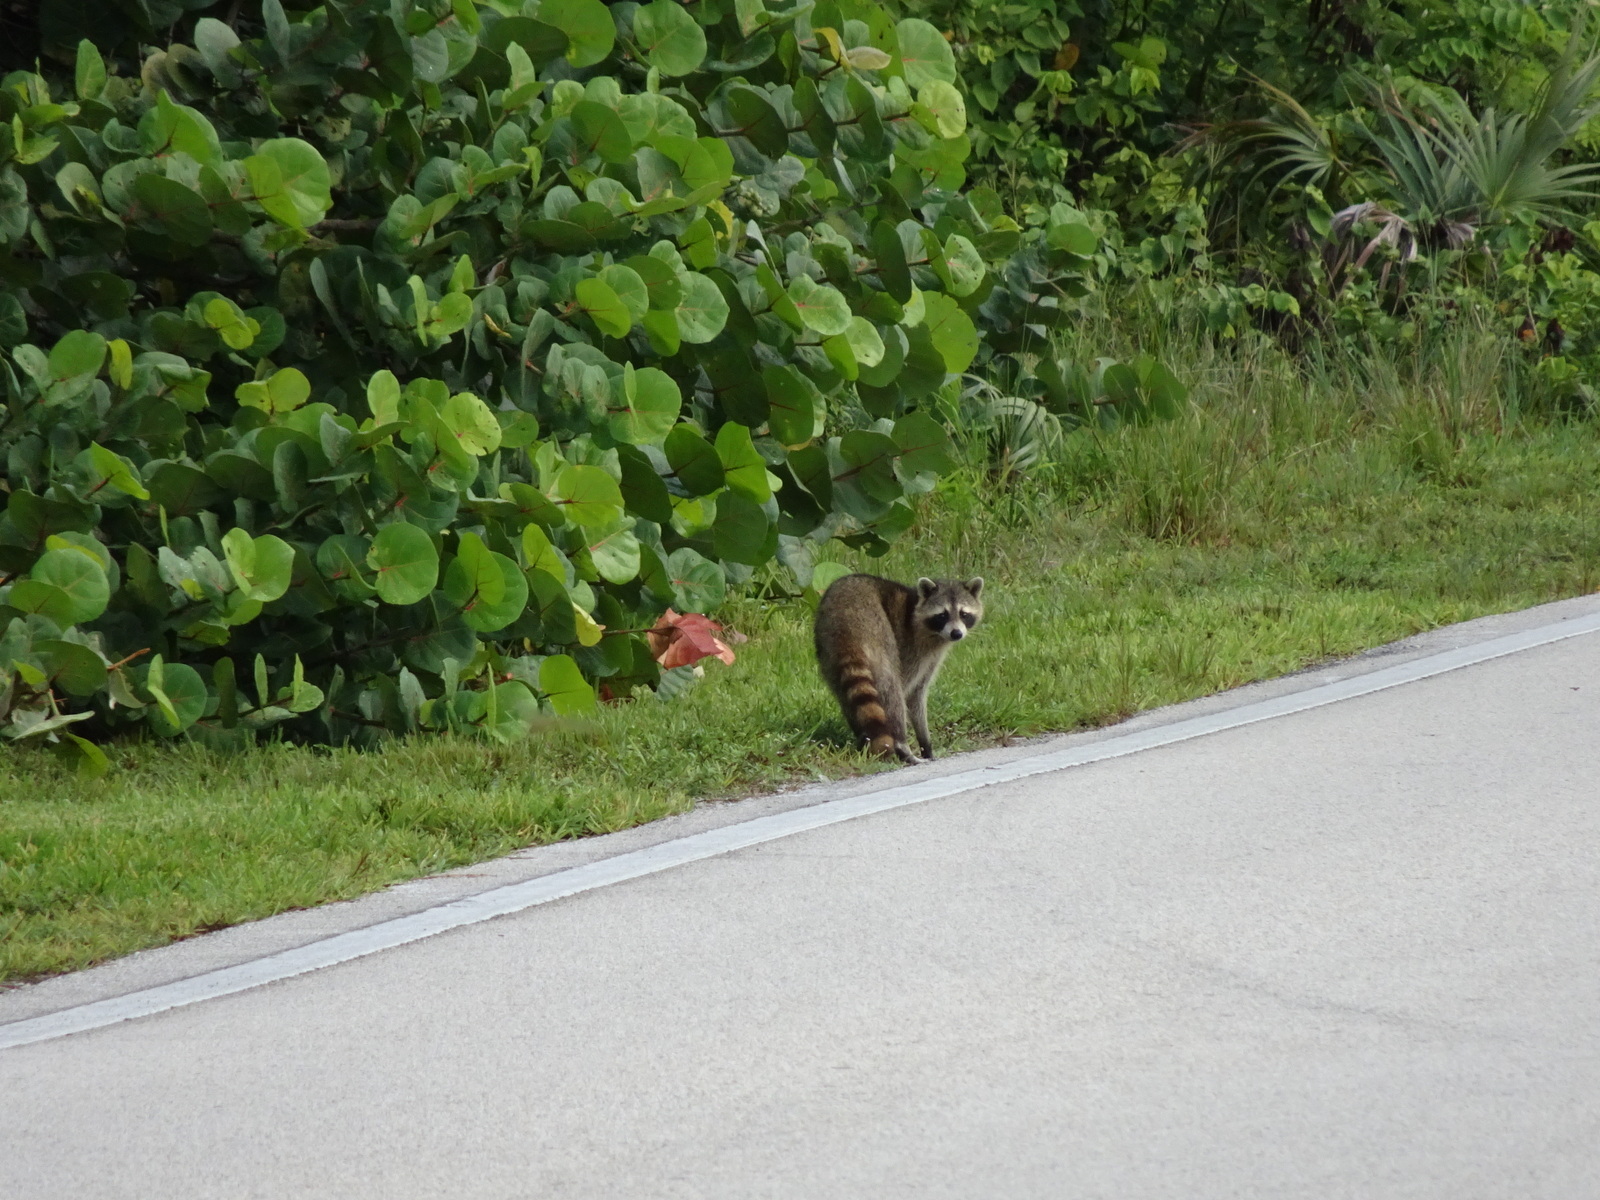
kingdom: Animalia
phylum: Chordata
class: Mammalia
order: Carnivora
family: Procyonidae
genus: Procyon
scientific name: Procyon lotor
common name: Raccoon
